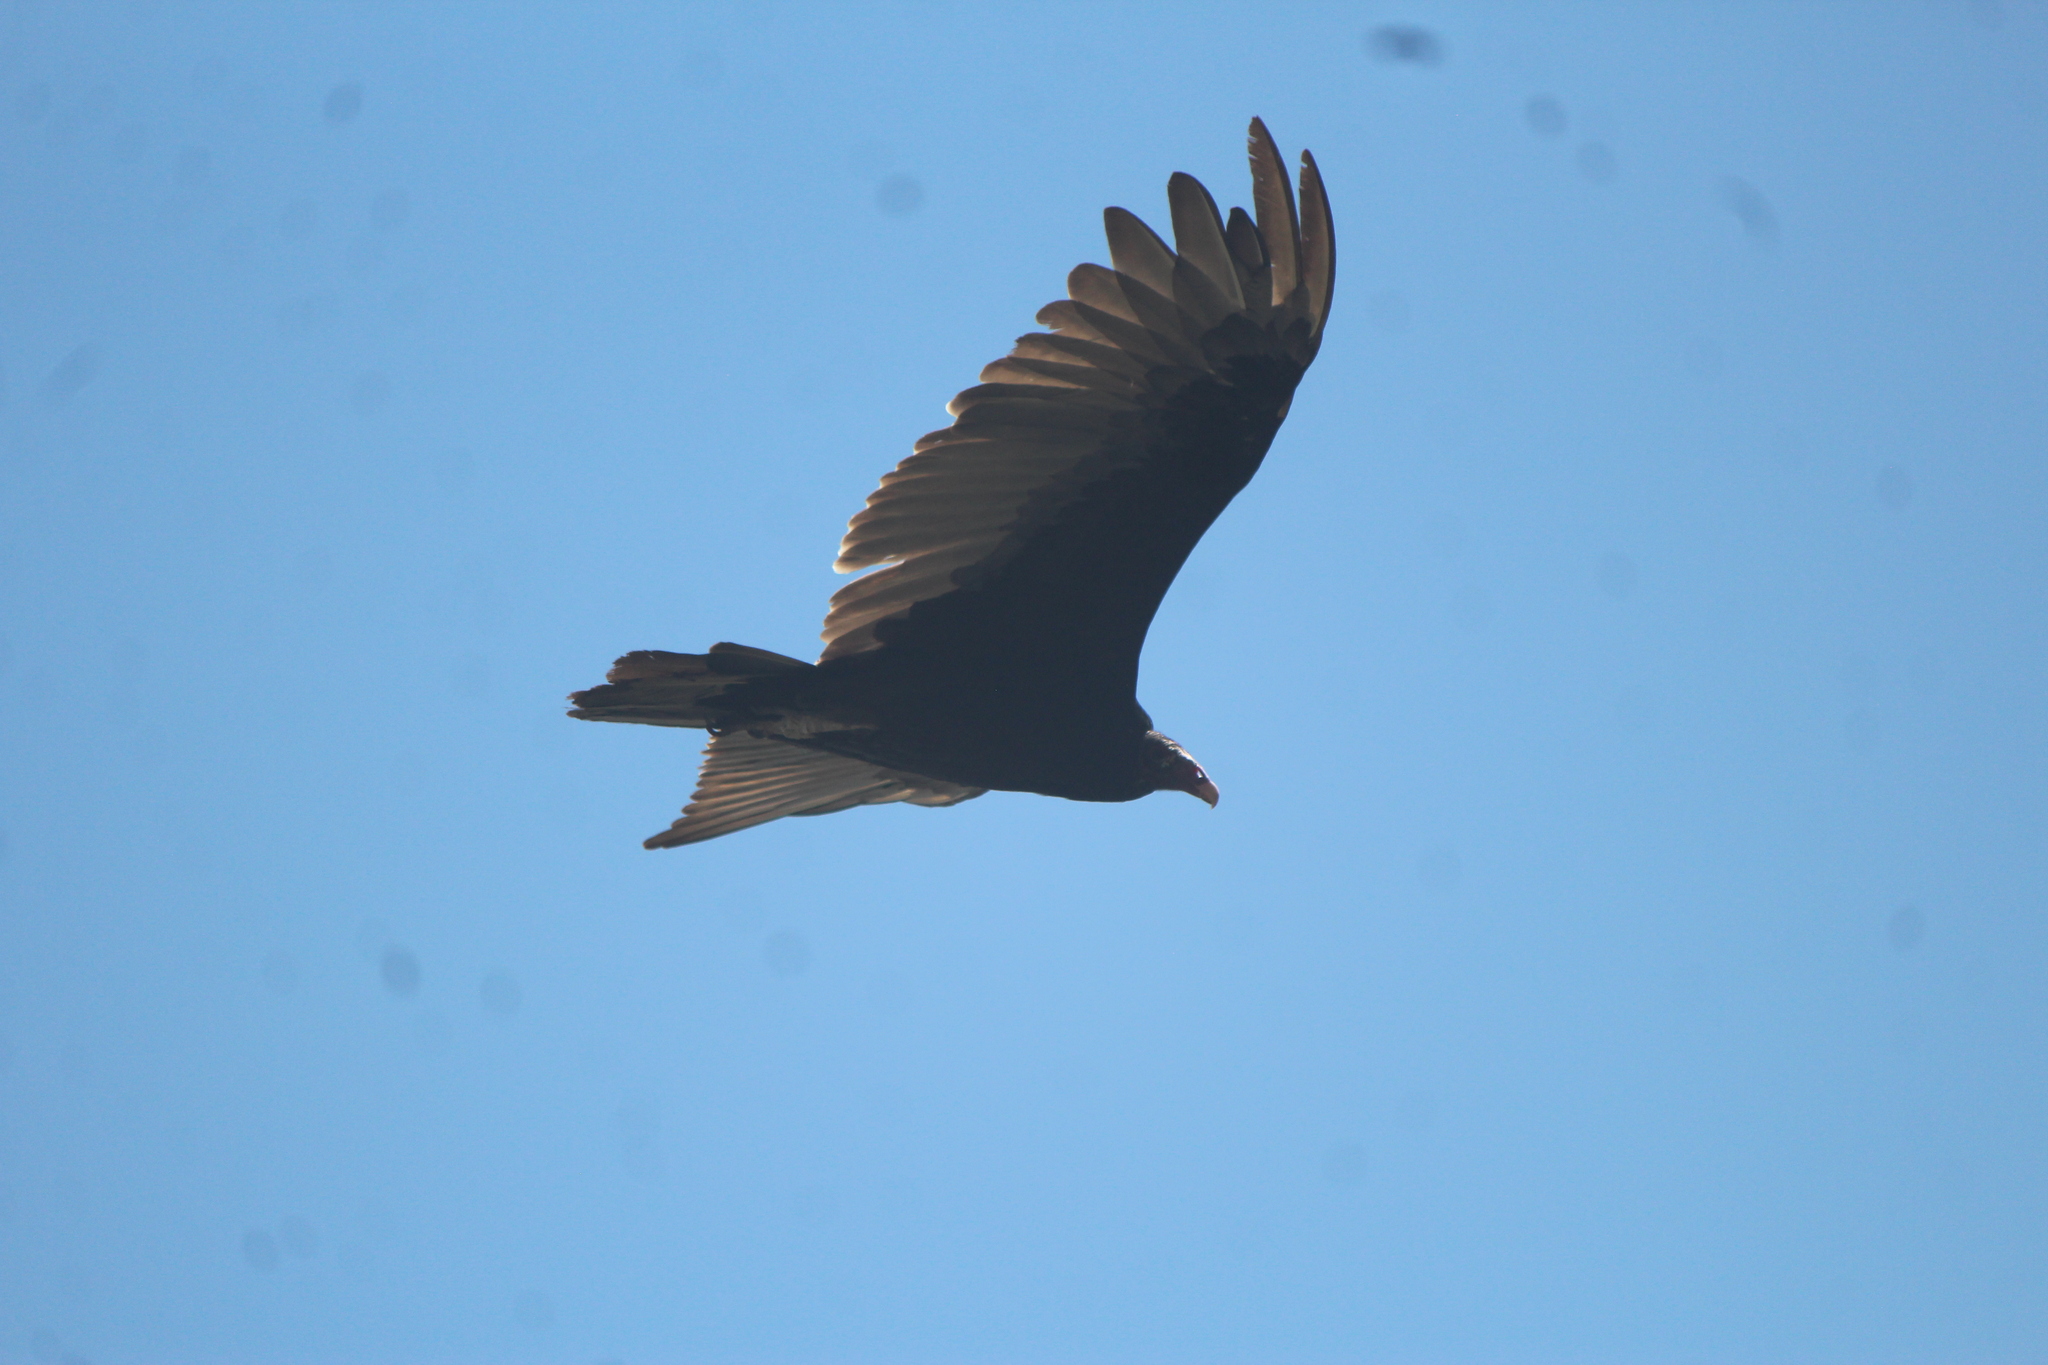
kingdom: Animalia
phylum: Chordata
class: Aves
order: Accipitriformes
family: Cathartidae
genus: Cathartes
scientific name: Cathartes aura
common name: Turkey vulture
